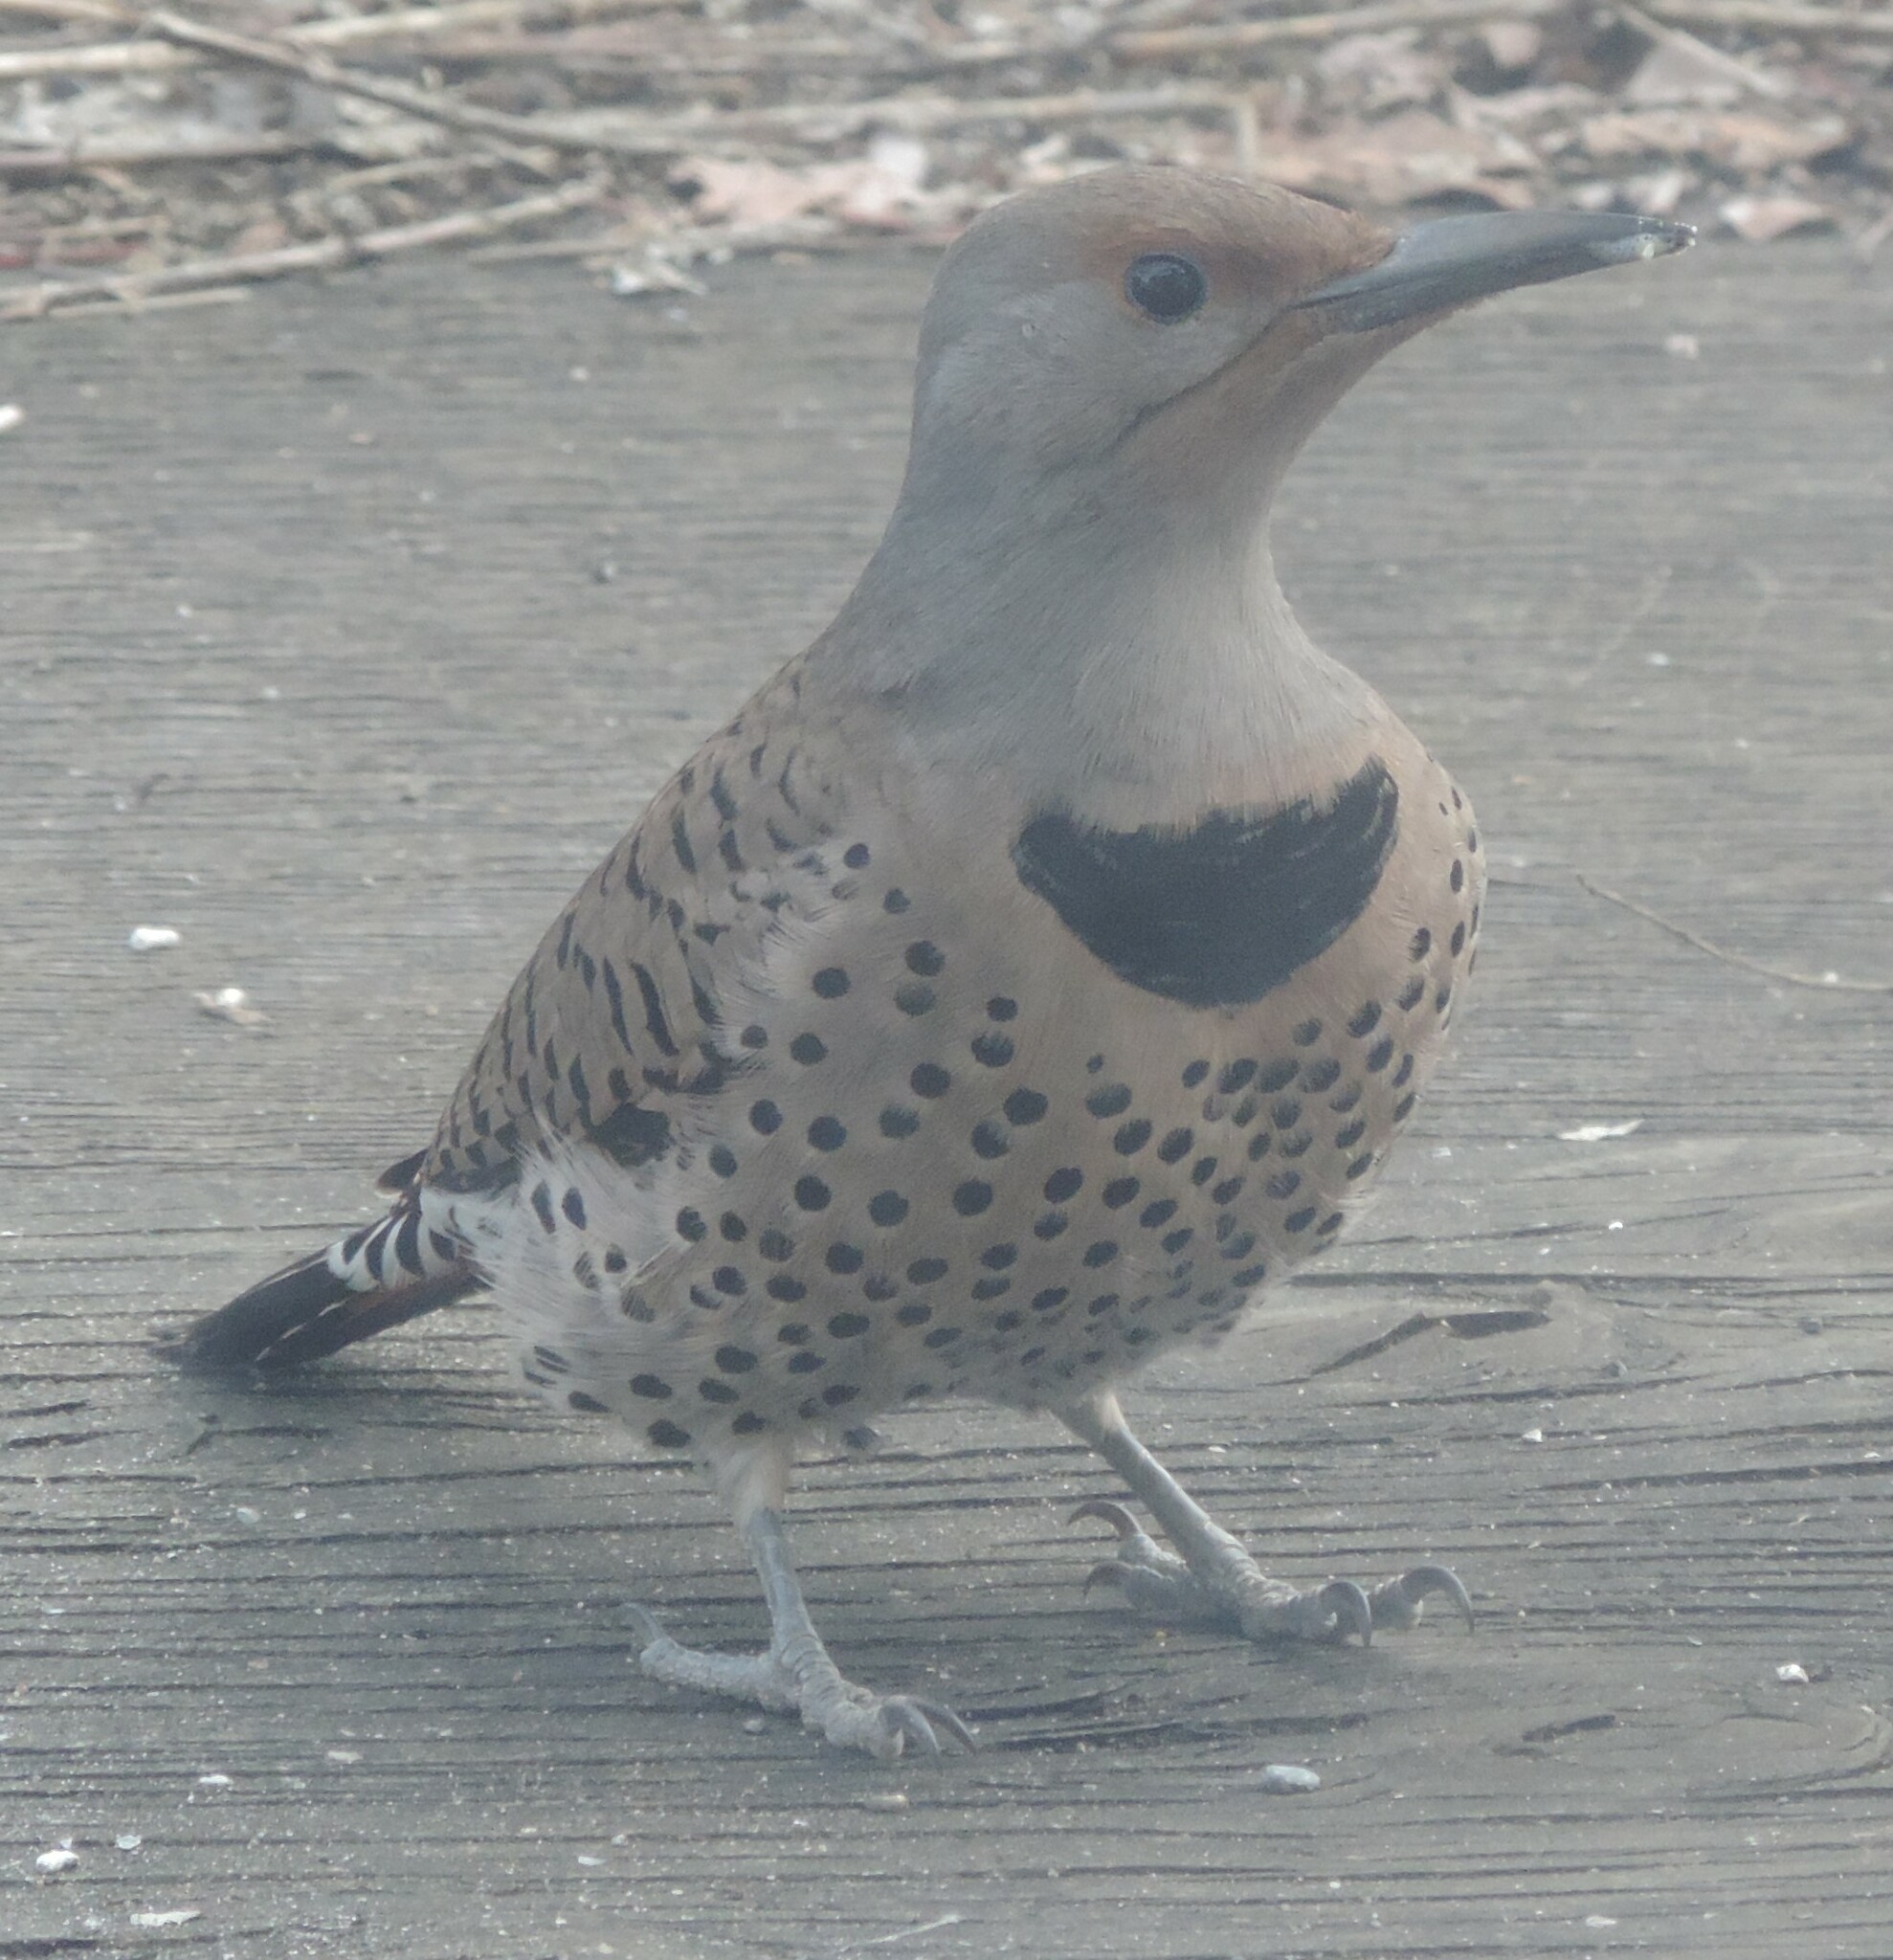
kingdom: Animalia
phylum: Chordata
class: Aves
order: Piciformes
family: Picidae
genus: Colaptes
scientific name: Colaptes auratus
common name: Northern flicker
